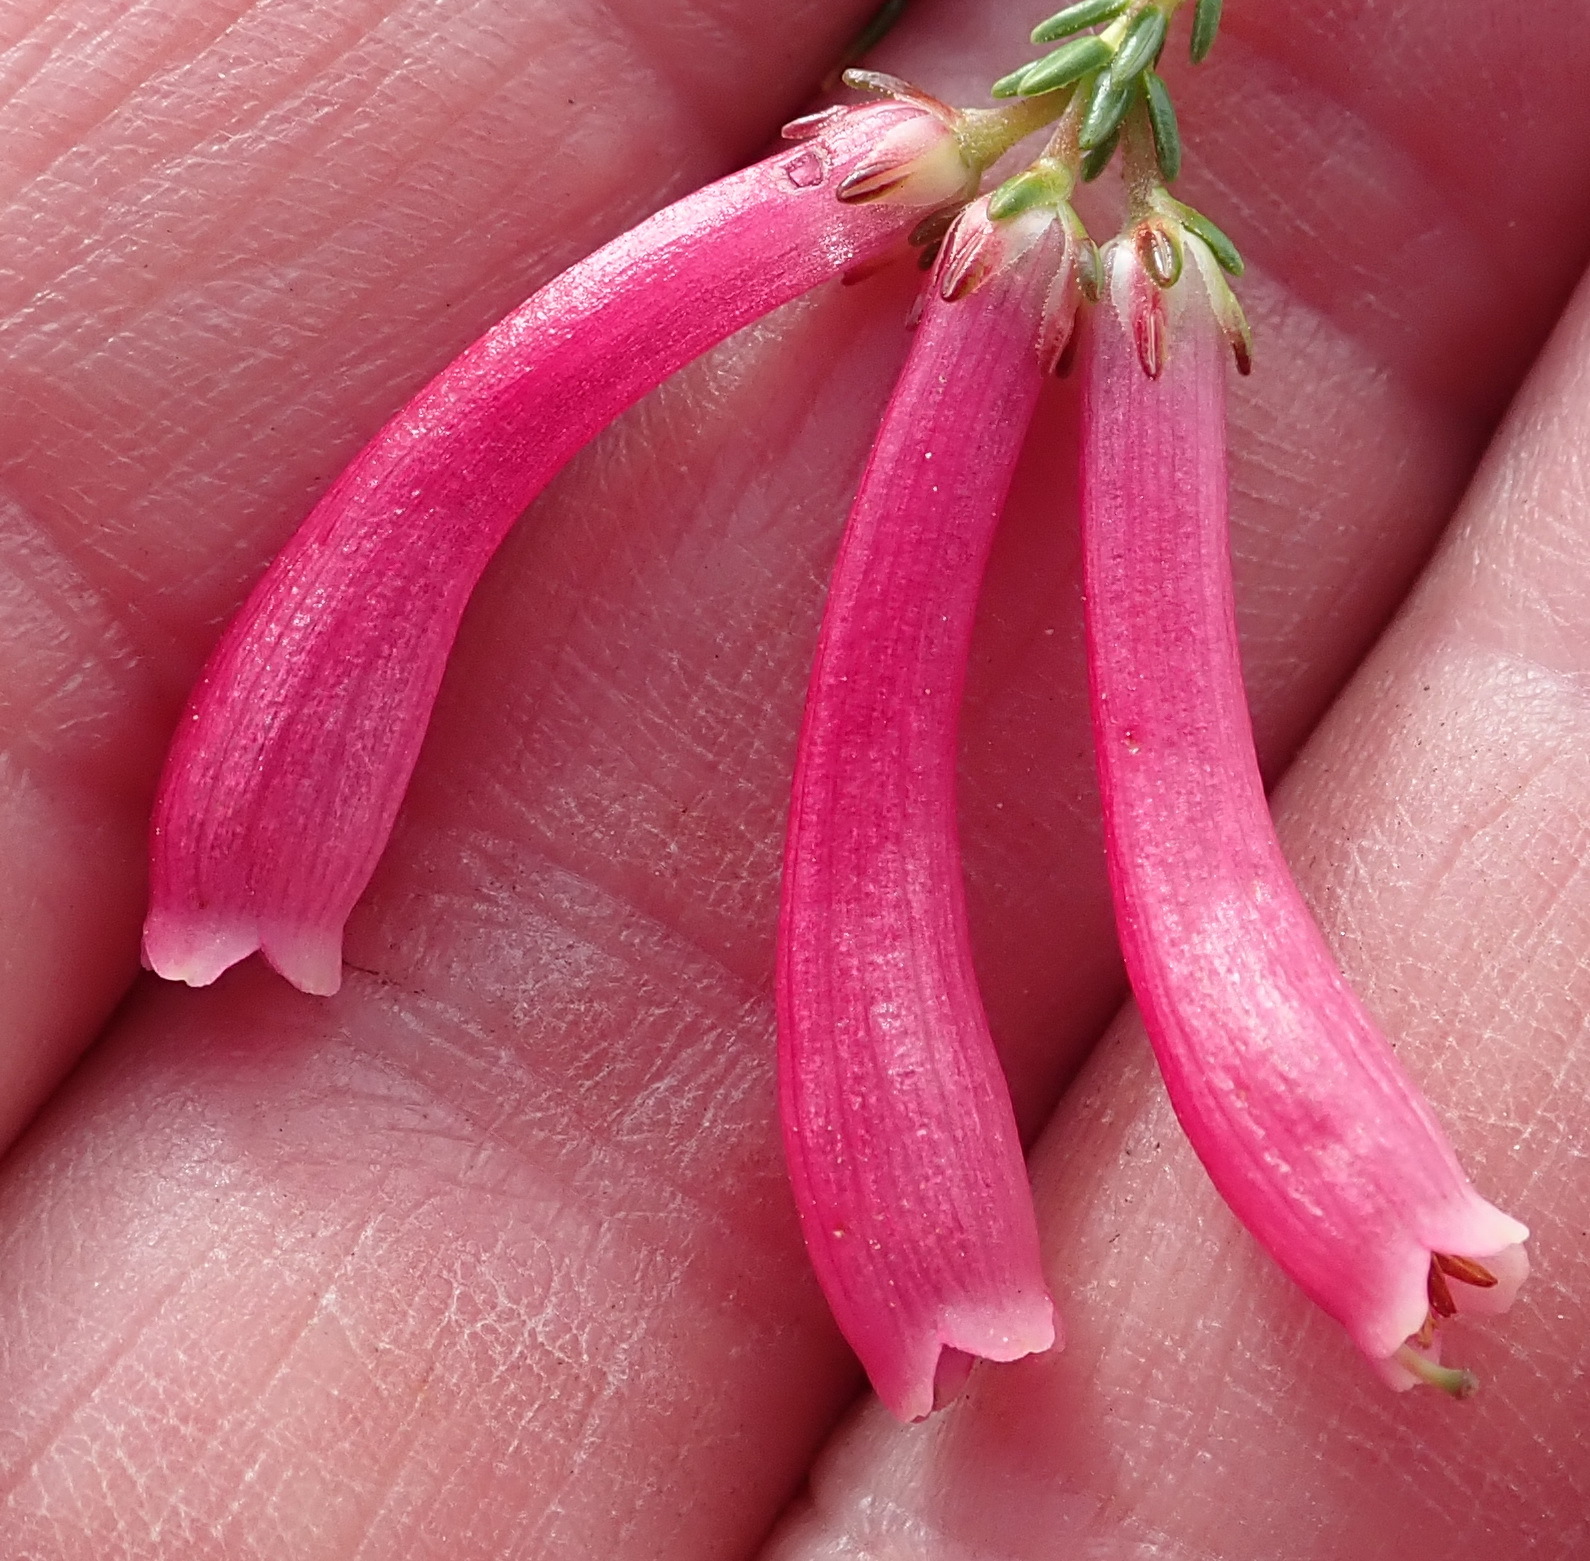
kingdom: Plantae
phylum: Tracheophyta
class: Magnoliopsida
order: Ericales
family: Ericaceae
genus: Erica
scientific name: Erica discolor
